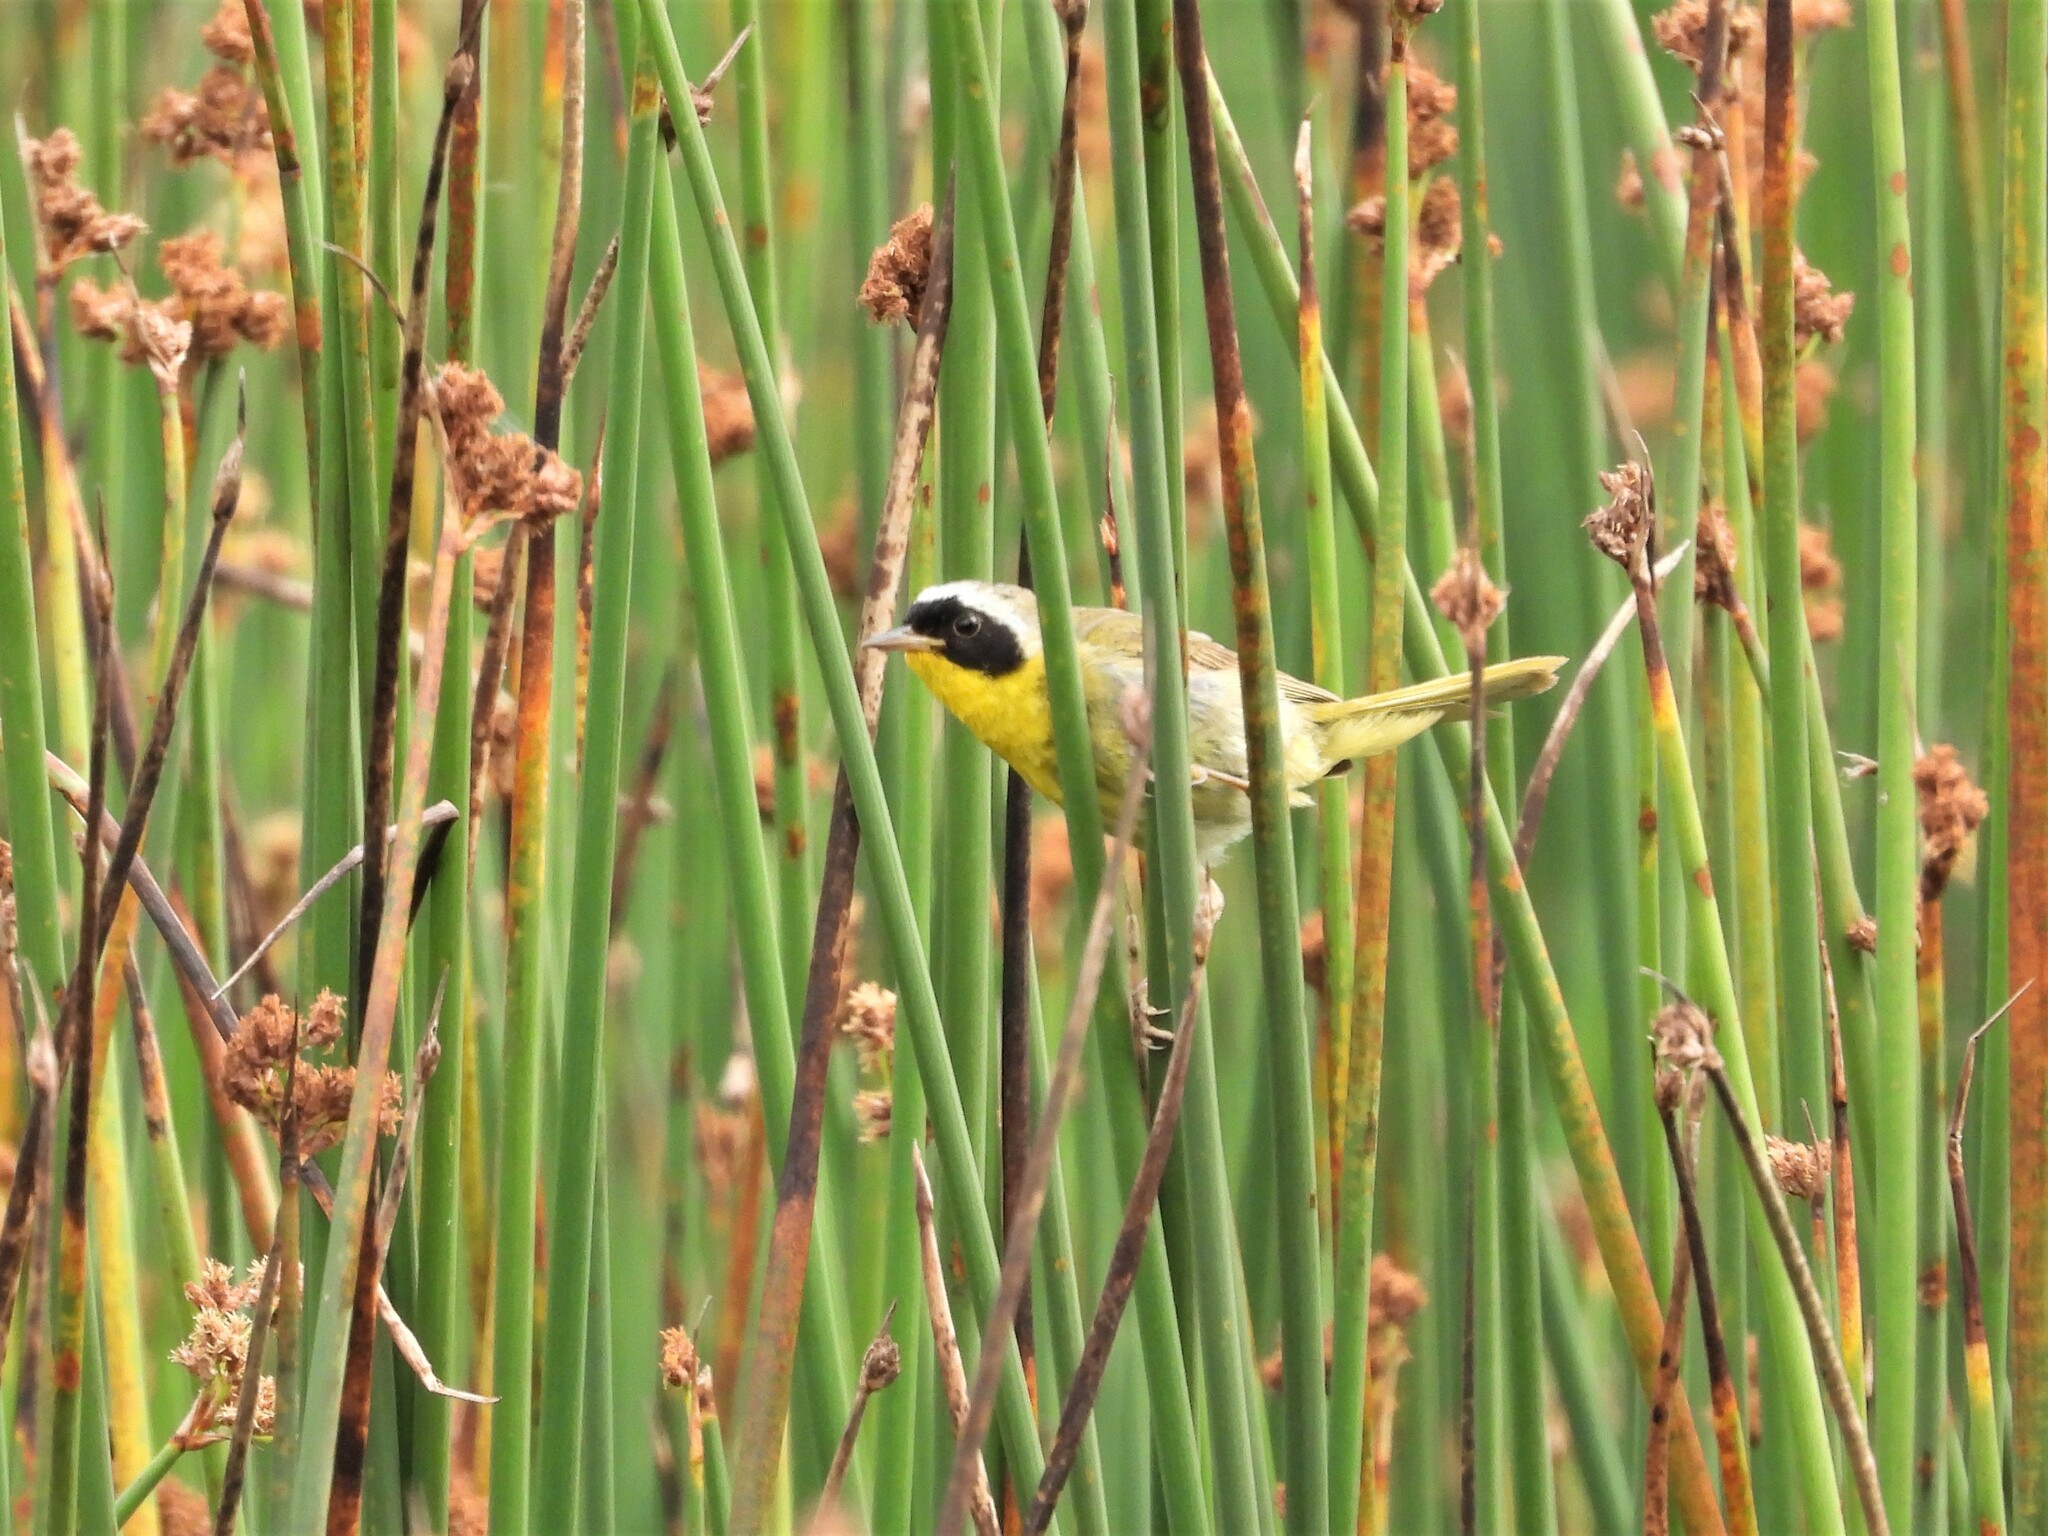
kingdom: Animalia
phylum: Chordata
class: Aves
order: Passeriformes
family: Parulidae
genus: Geothlypis
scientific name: Geothlypis trichas
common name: Common yellowthroat
